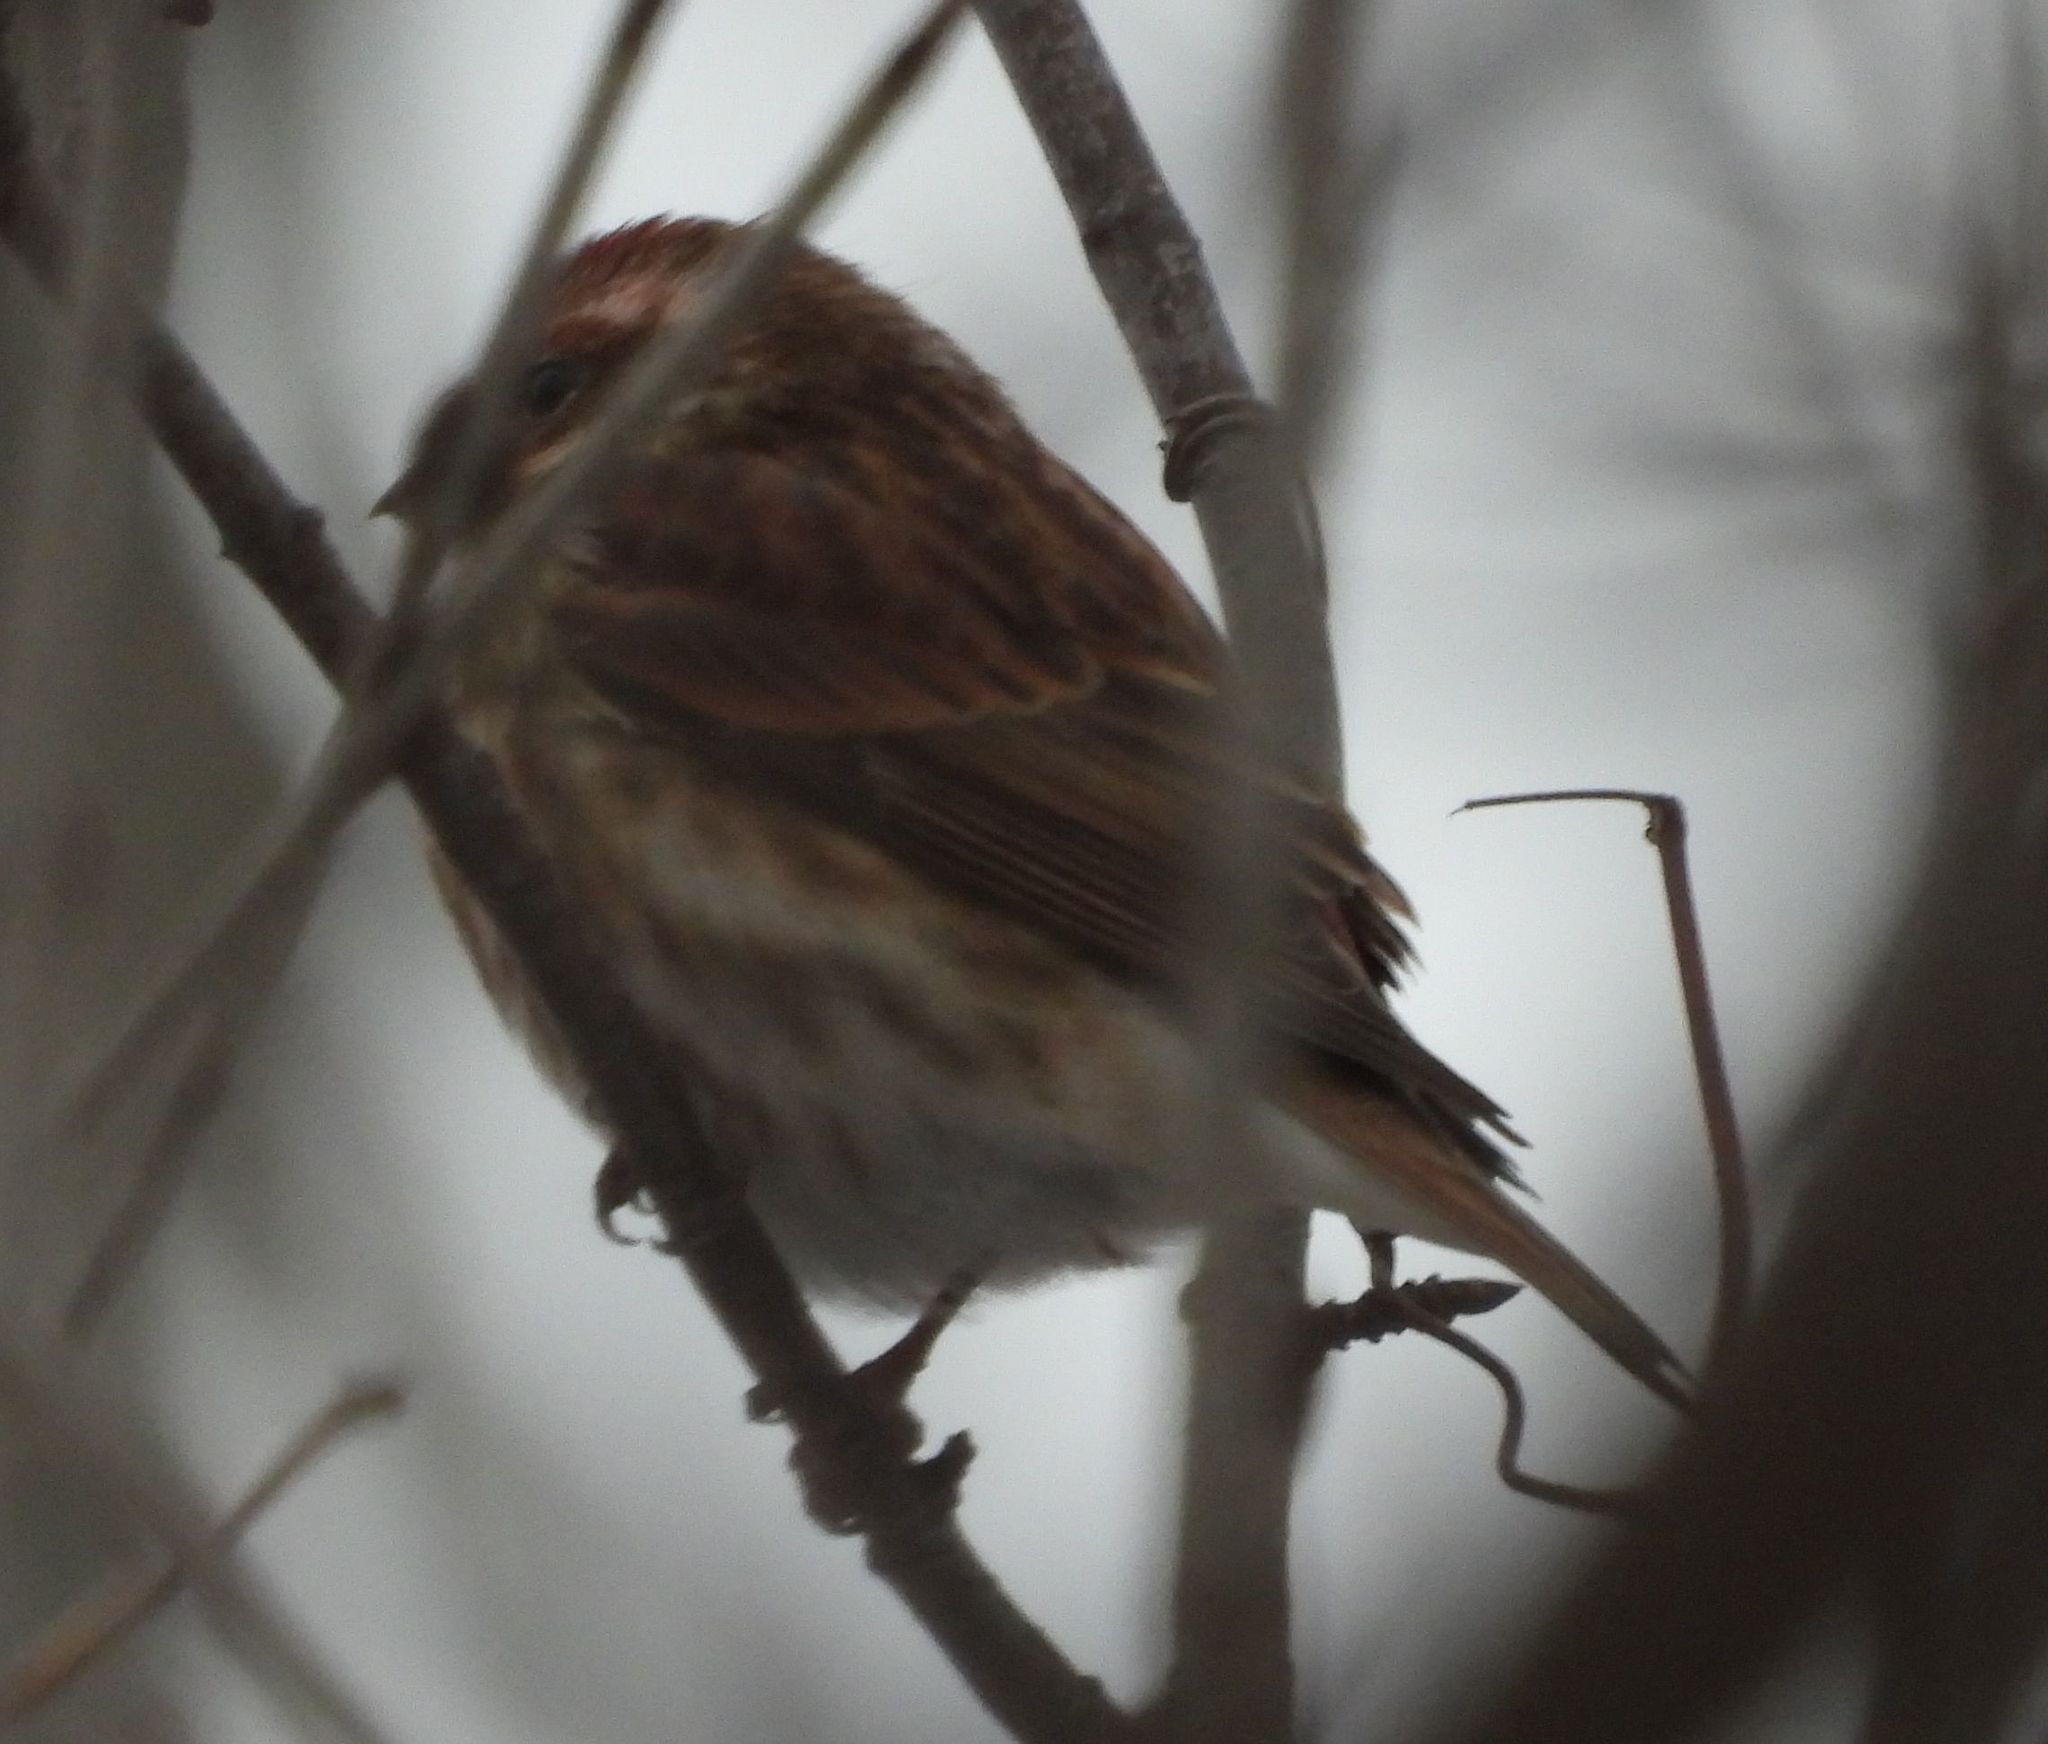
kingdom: Animalia
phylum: Chordata
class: Aves
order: Passeriformes
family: Fringillidae
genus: Haemorhous
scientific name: Haemorhous purpureus
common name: Purple finch
